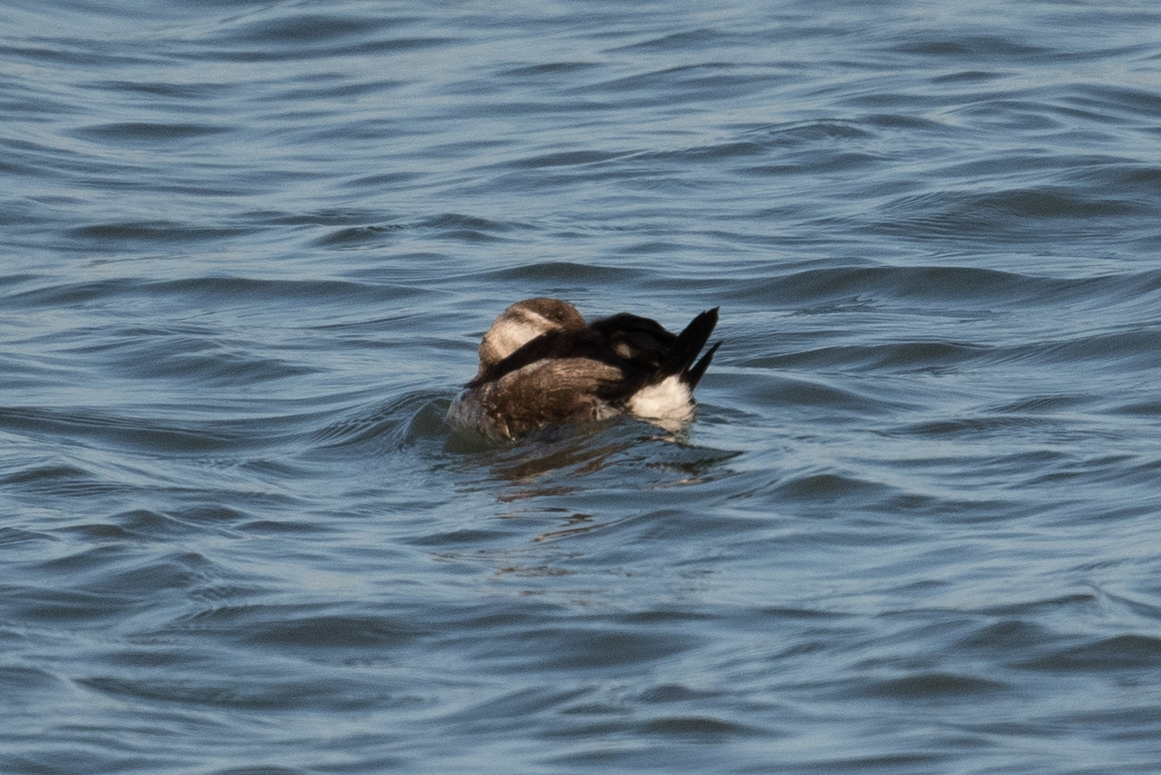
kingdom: Animalia
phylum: Chordata
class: Aves
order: Anseriformes
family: Anatidae
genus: Oxyura
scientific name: Oxyura jamaicensis
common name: Ruddy duck
